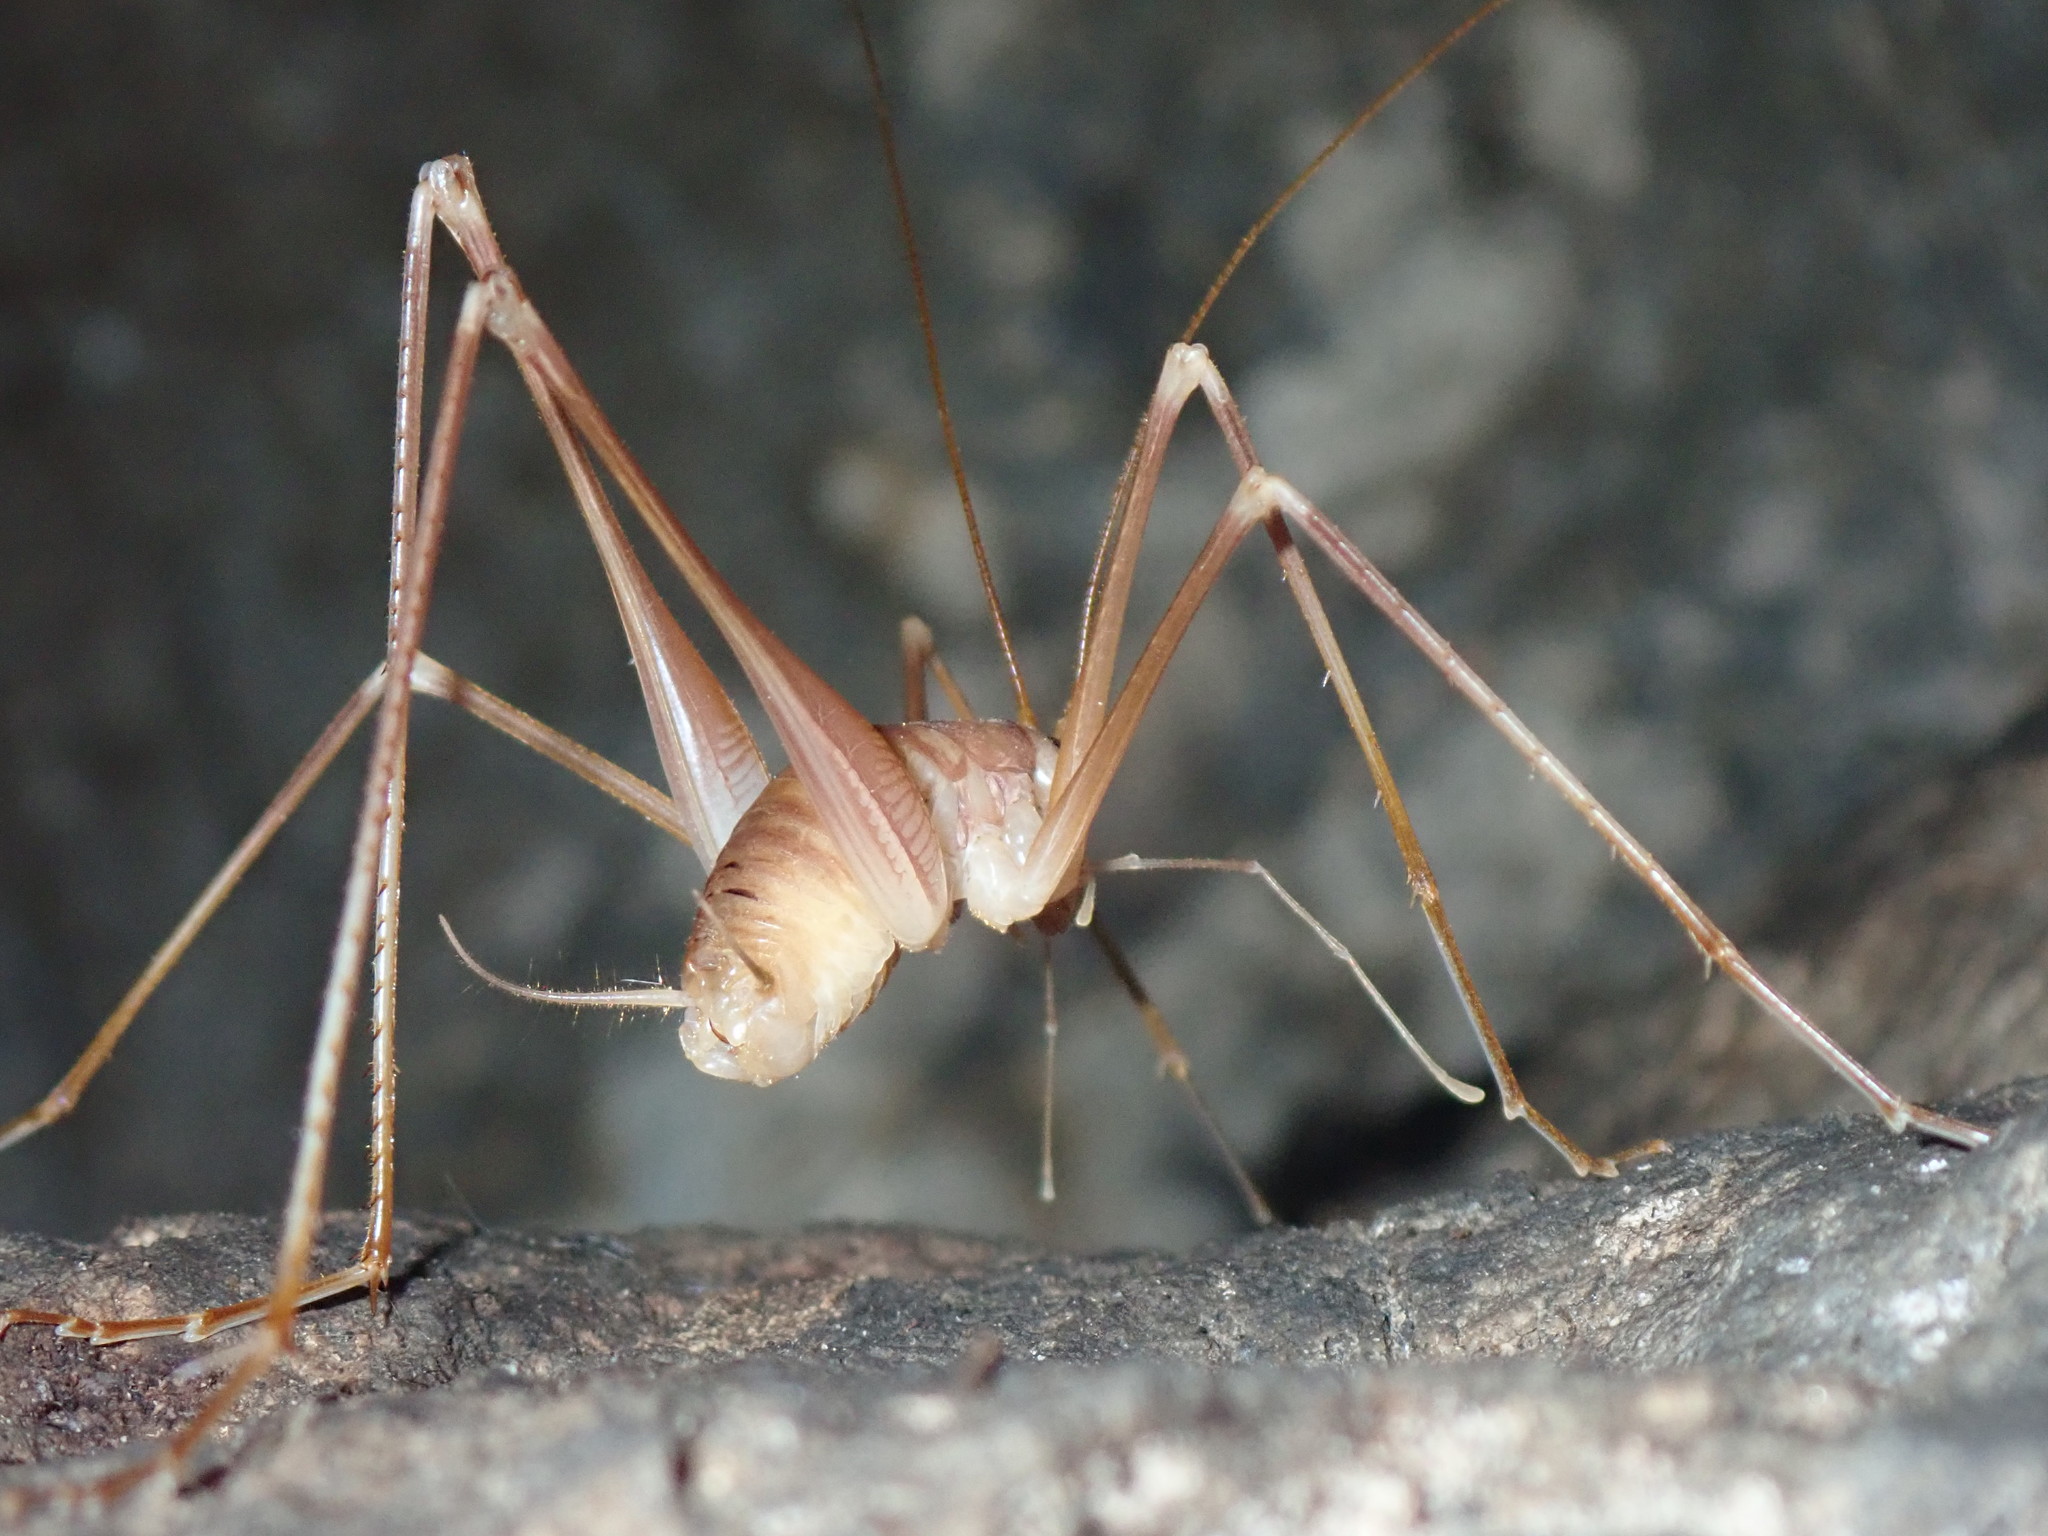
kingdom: Animalia
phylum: Arthropoda
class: Insecta
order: Orthoptera
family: Rhaphidophoridae
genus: Dolichopoda
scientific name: Dolichopoda araneiformis
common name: Spidery cave-cricket
